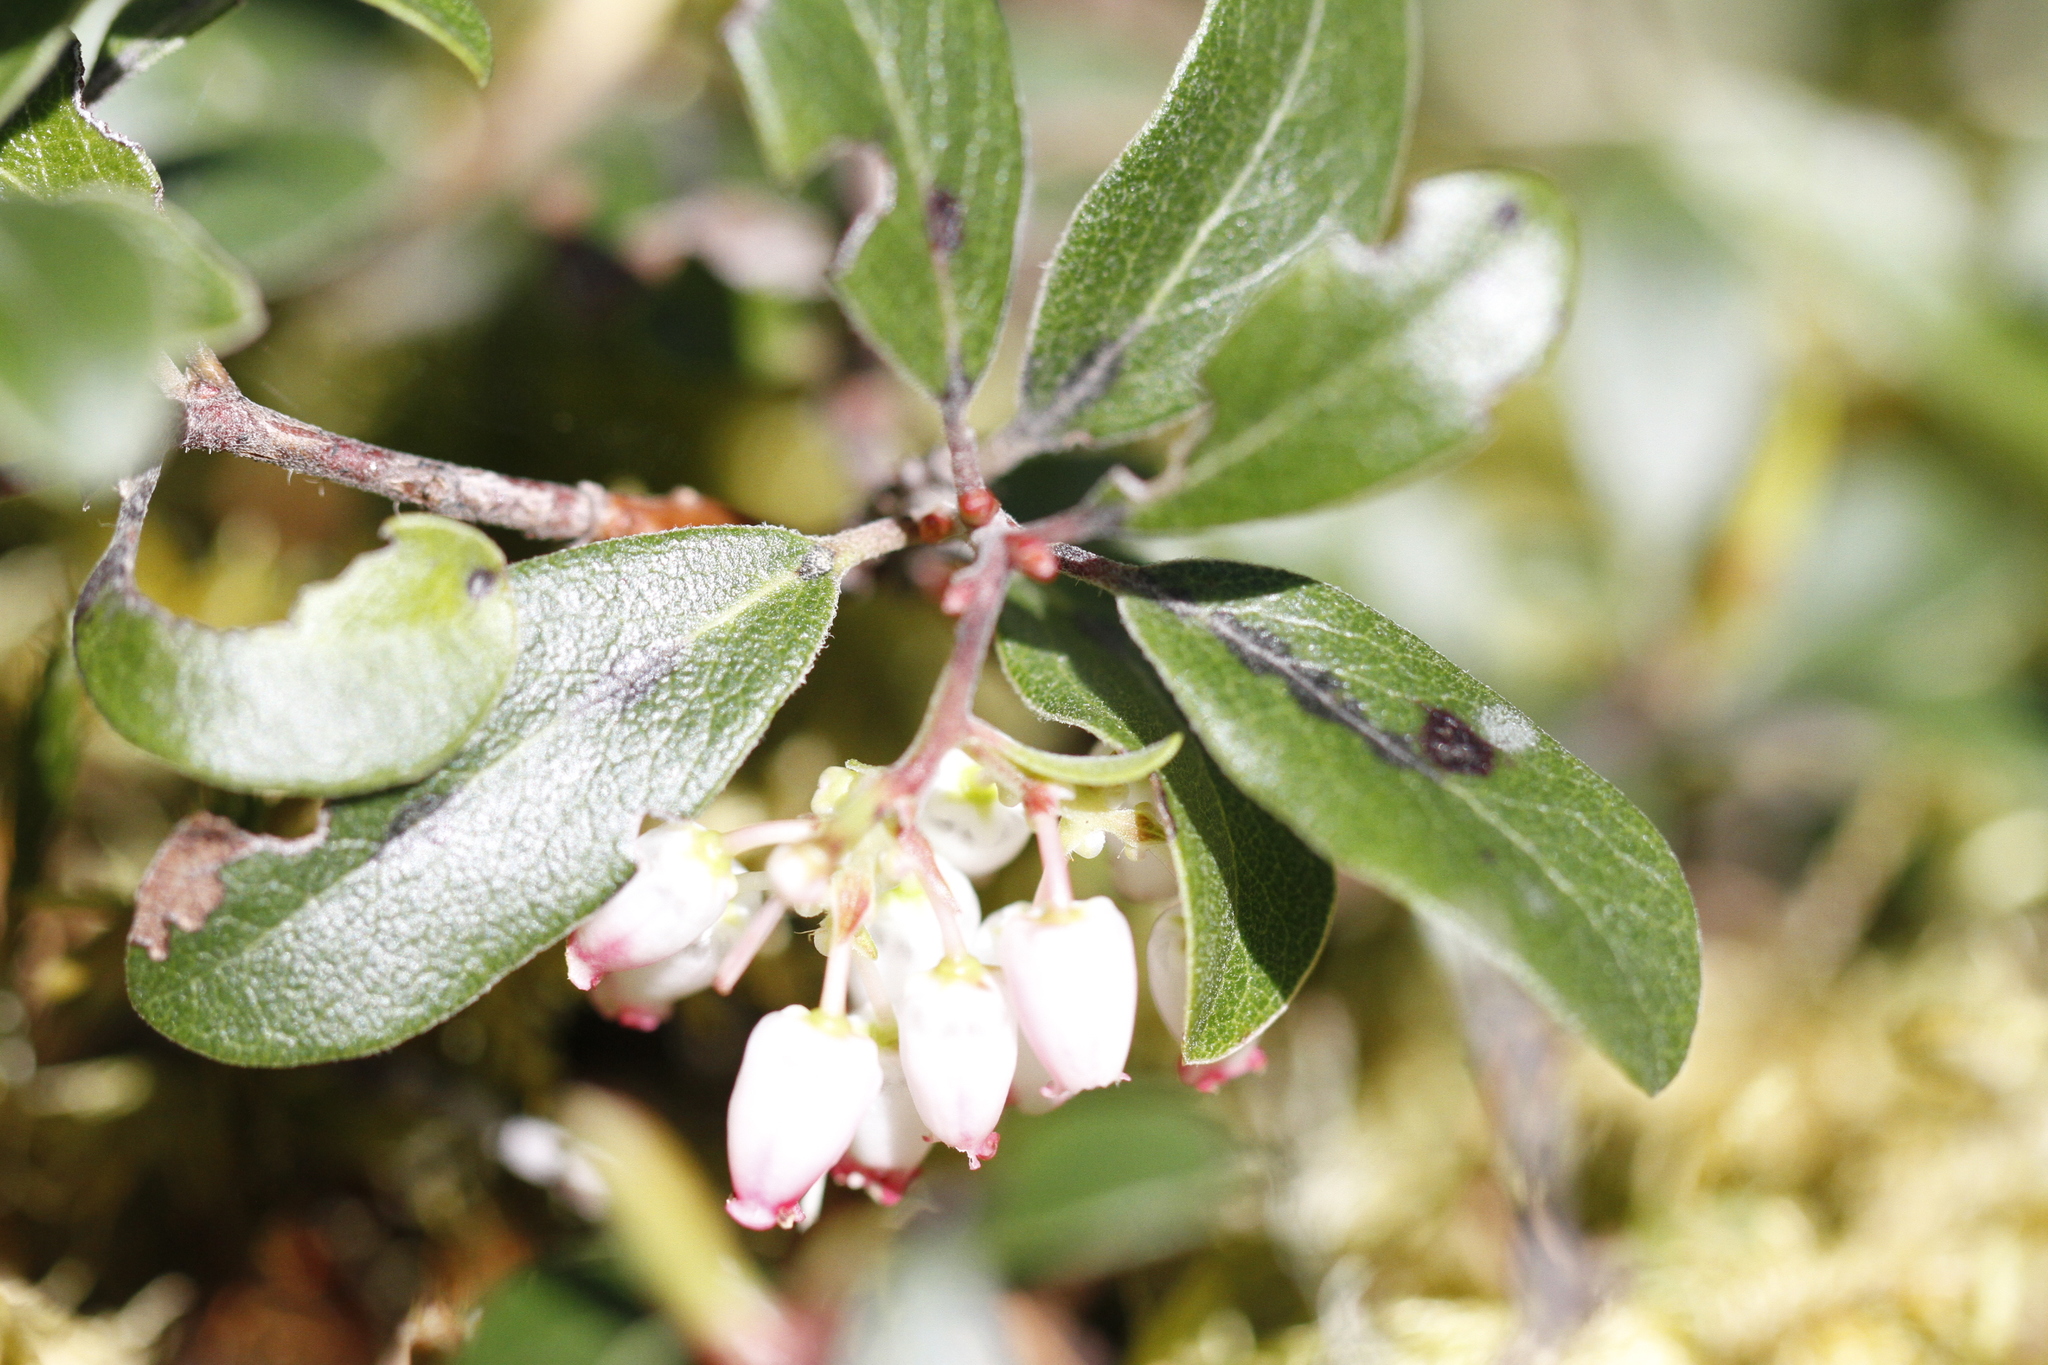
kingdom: Plantae
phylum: Tracheophyta
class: Magnoliopsida
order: Ericales
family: Ericaceae
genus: Arctostaphylos
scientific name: Arctostaphylos media
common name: Hybrid manzanita
